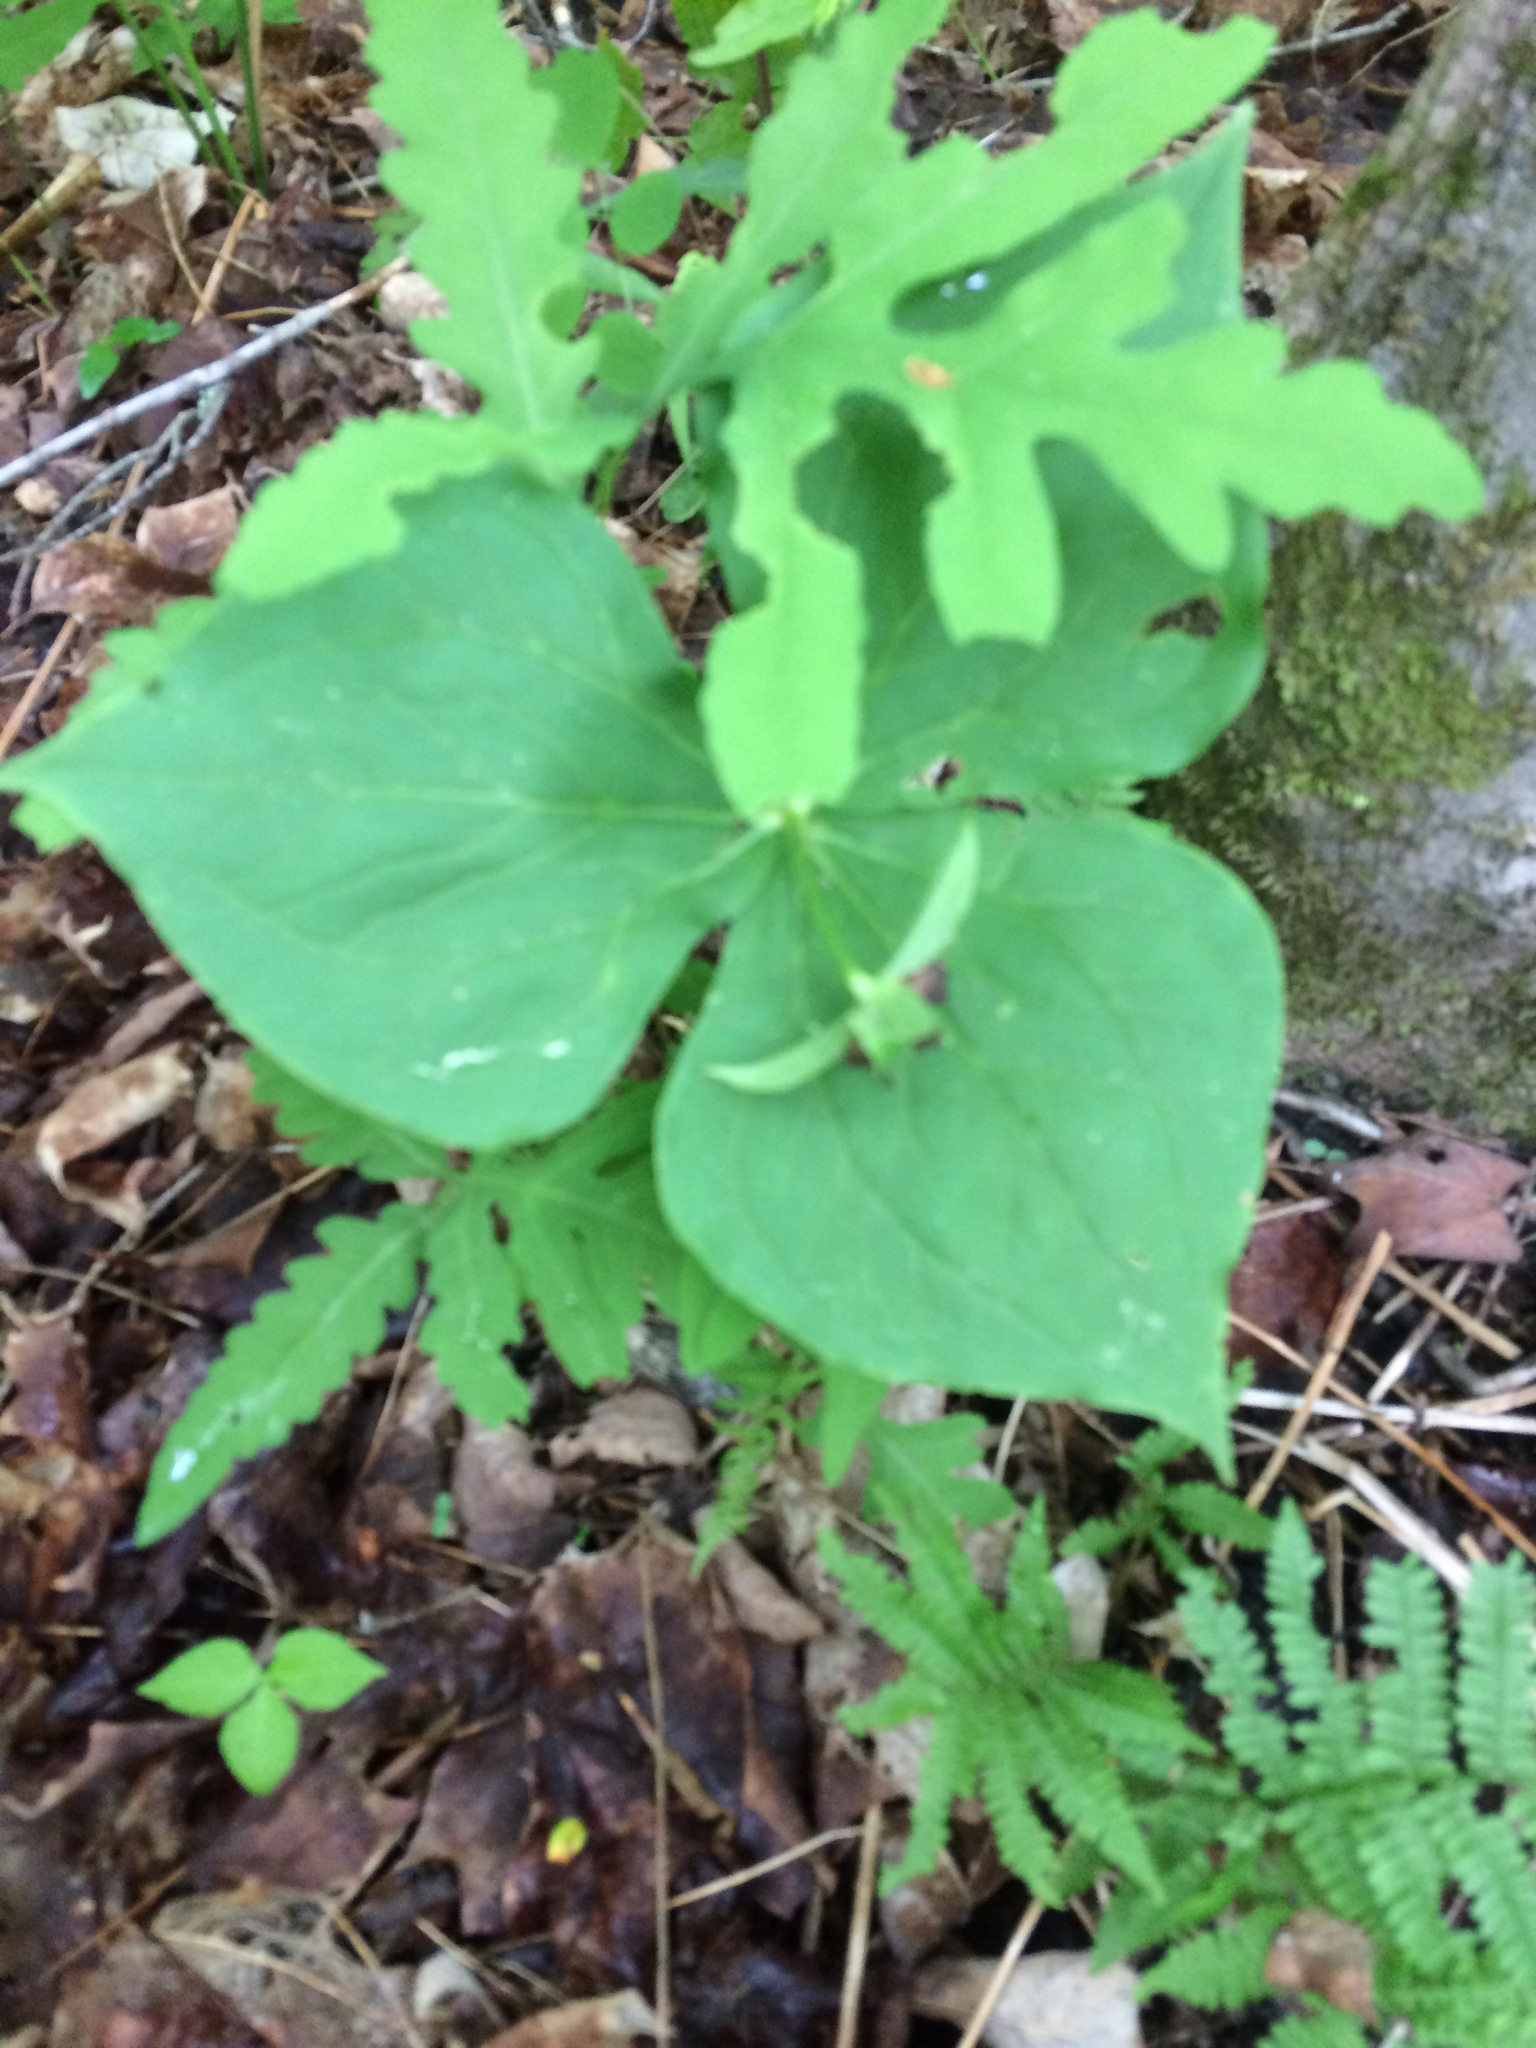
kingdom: Plantae
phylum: Tracheophyta
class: Liliopsida
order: Liliales
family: Melanthiaceae
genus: Trillium
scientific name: Trillium erectum
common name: Purple trillium
